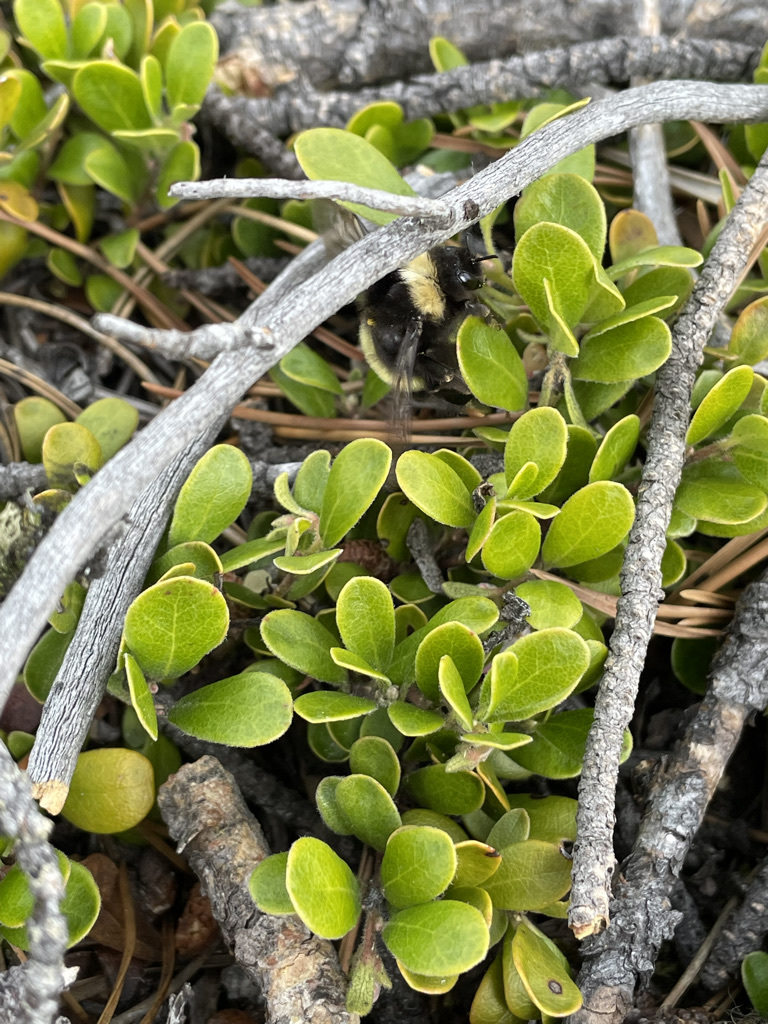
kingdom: Animalia
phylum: Arthropoda
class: Insecta
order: Hymenoptera
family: Apidae
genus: Bombus
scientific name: Bombus cryptarum
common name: Cryptic bumblebee
